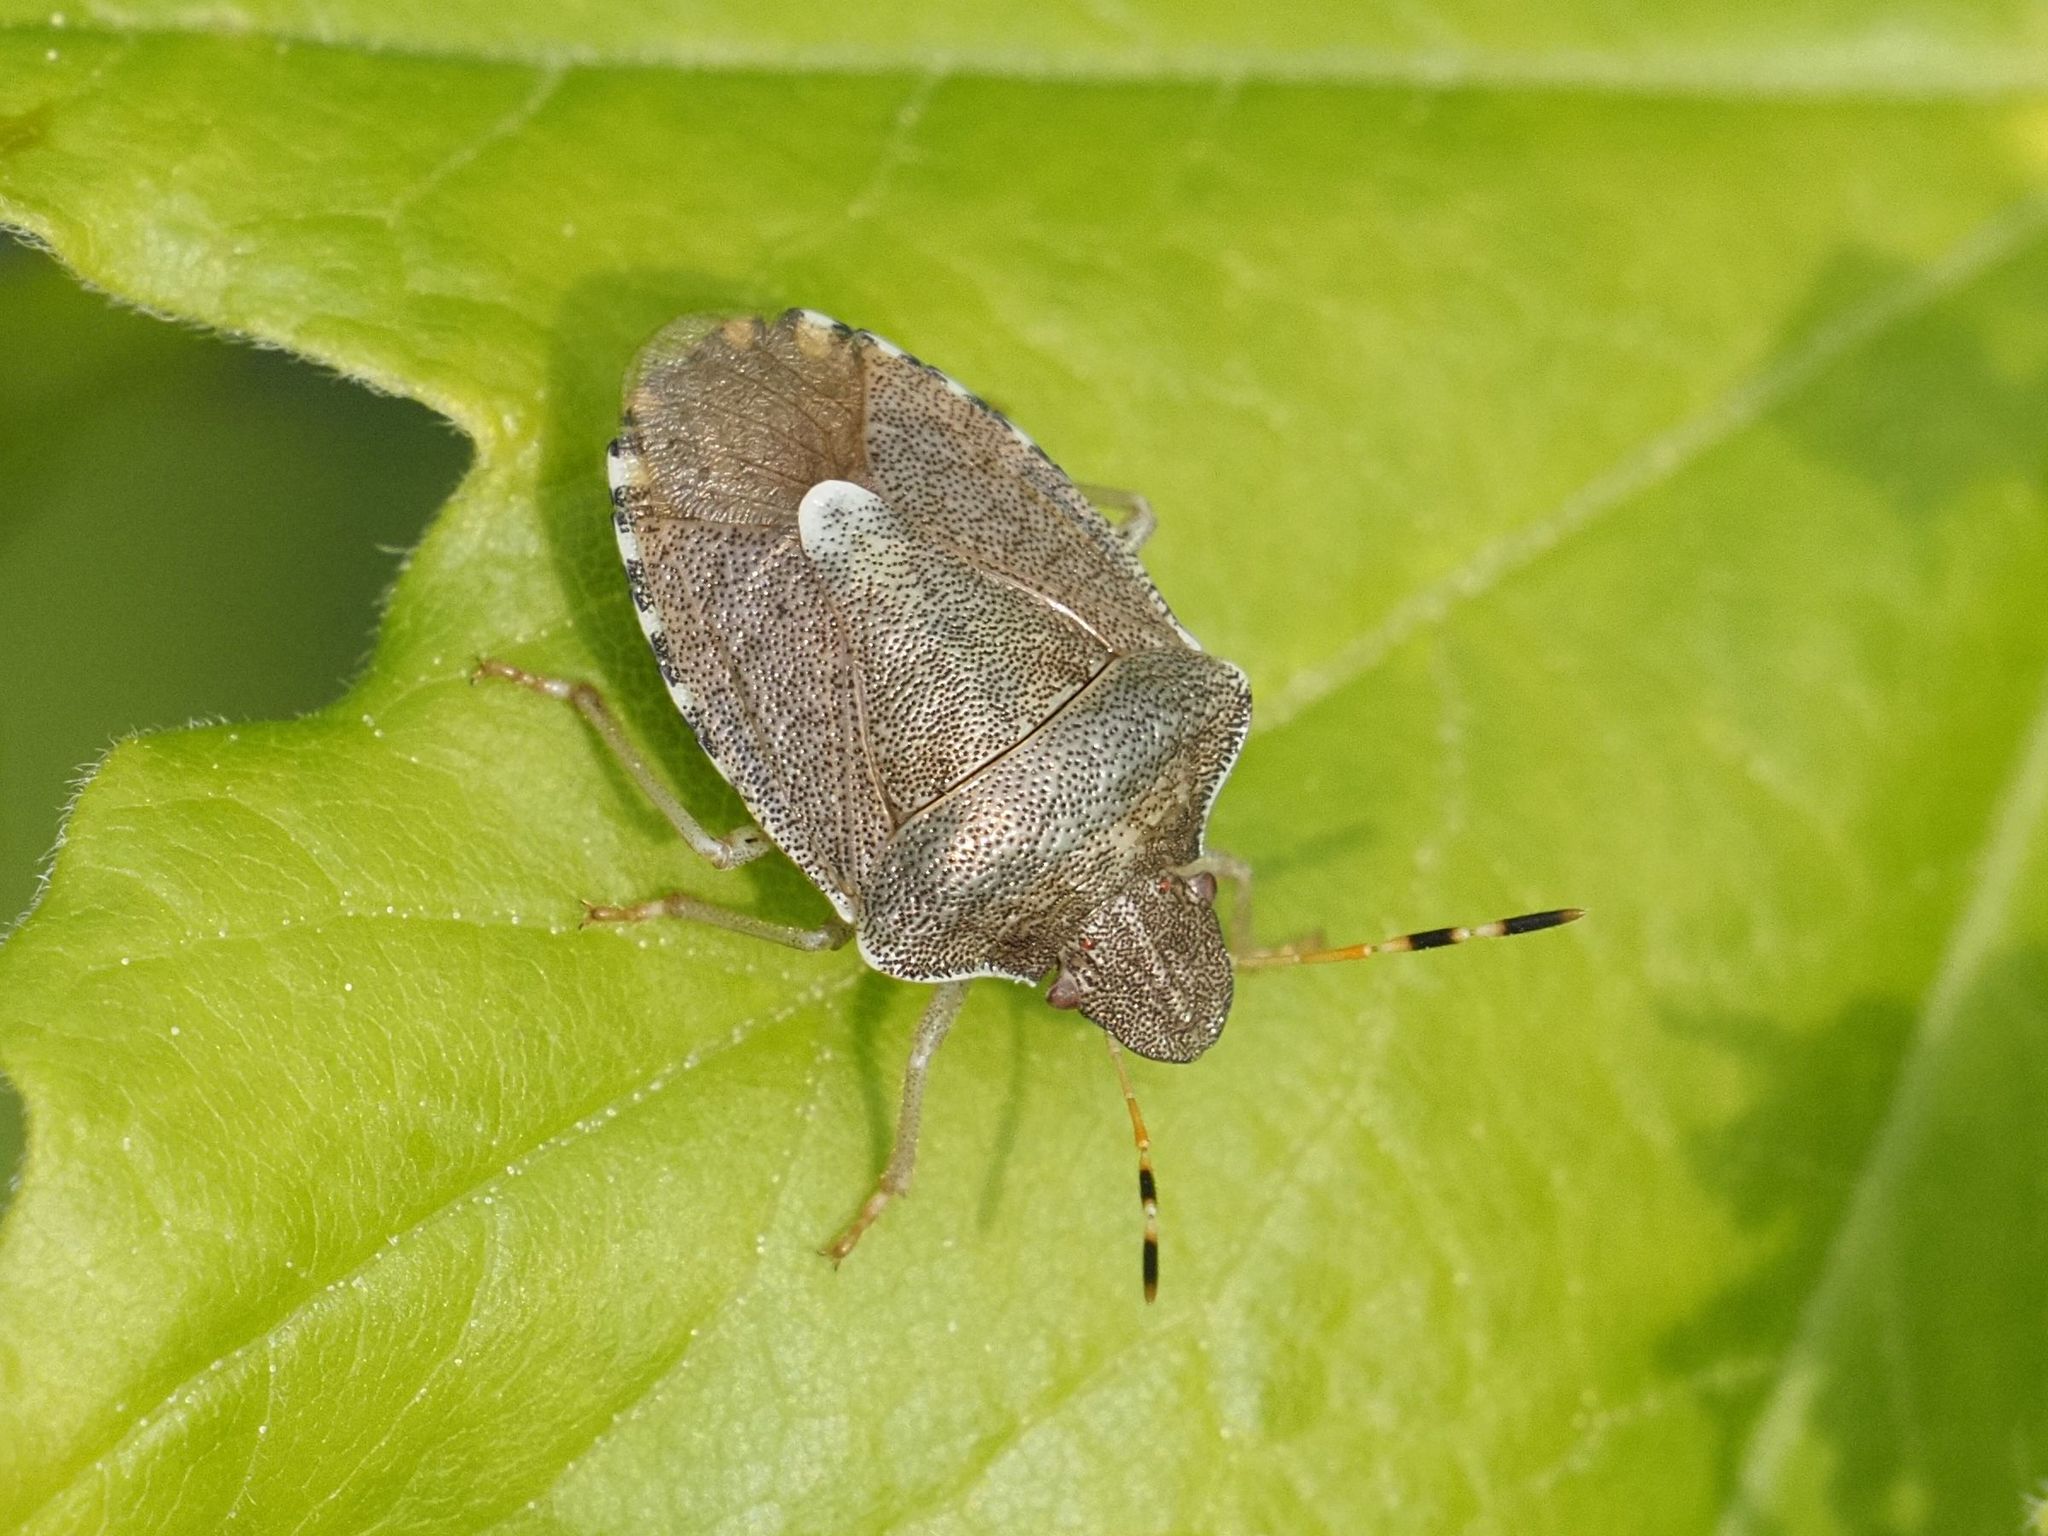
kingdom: Animalia
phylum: Arthropoda
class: Insecta
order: Hemiptera
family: Pentatomidae
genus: Holcostethus
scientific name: Holcostethus strictus
